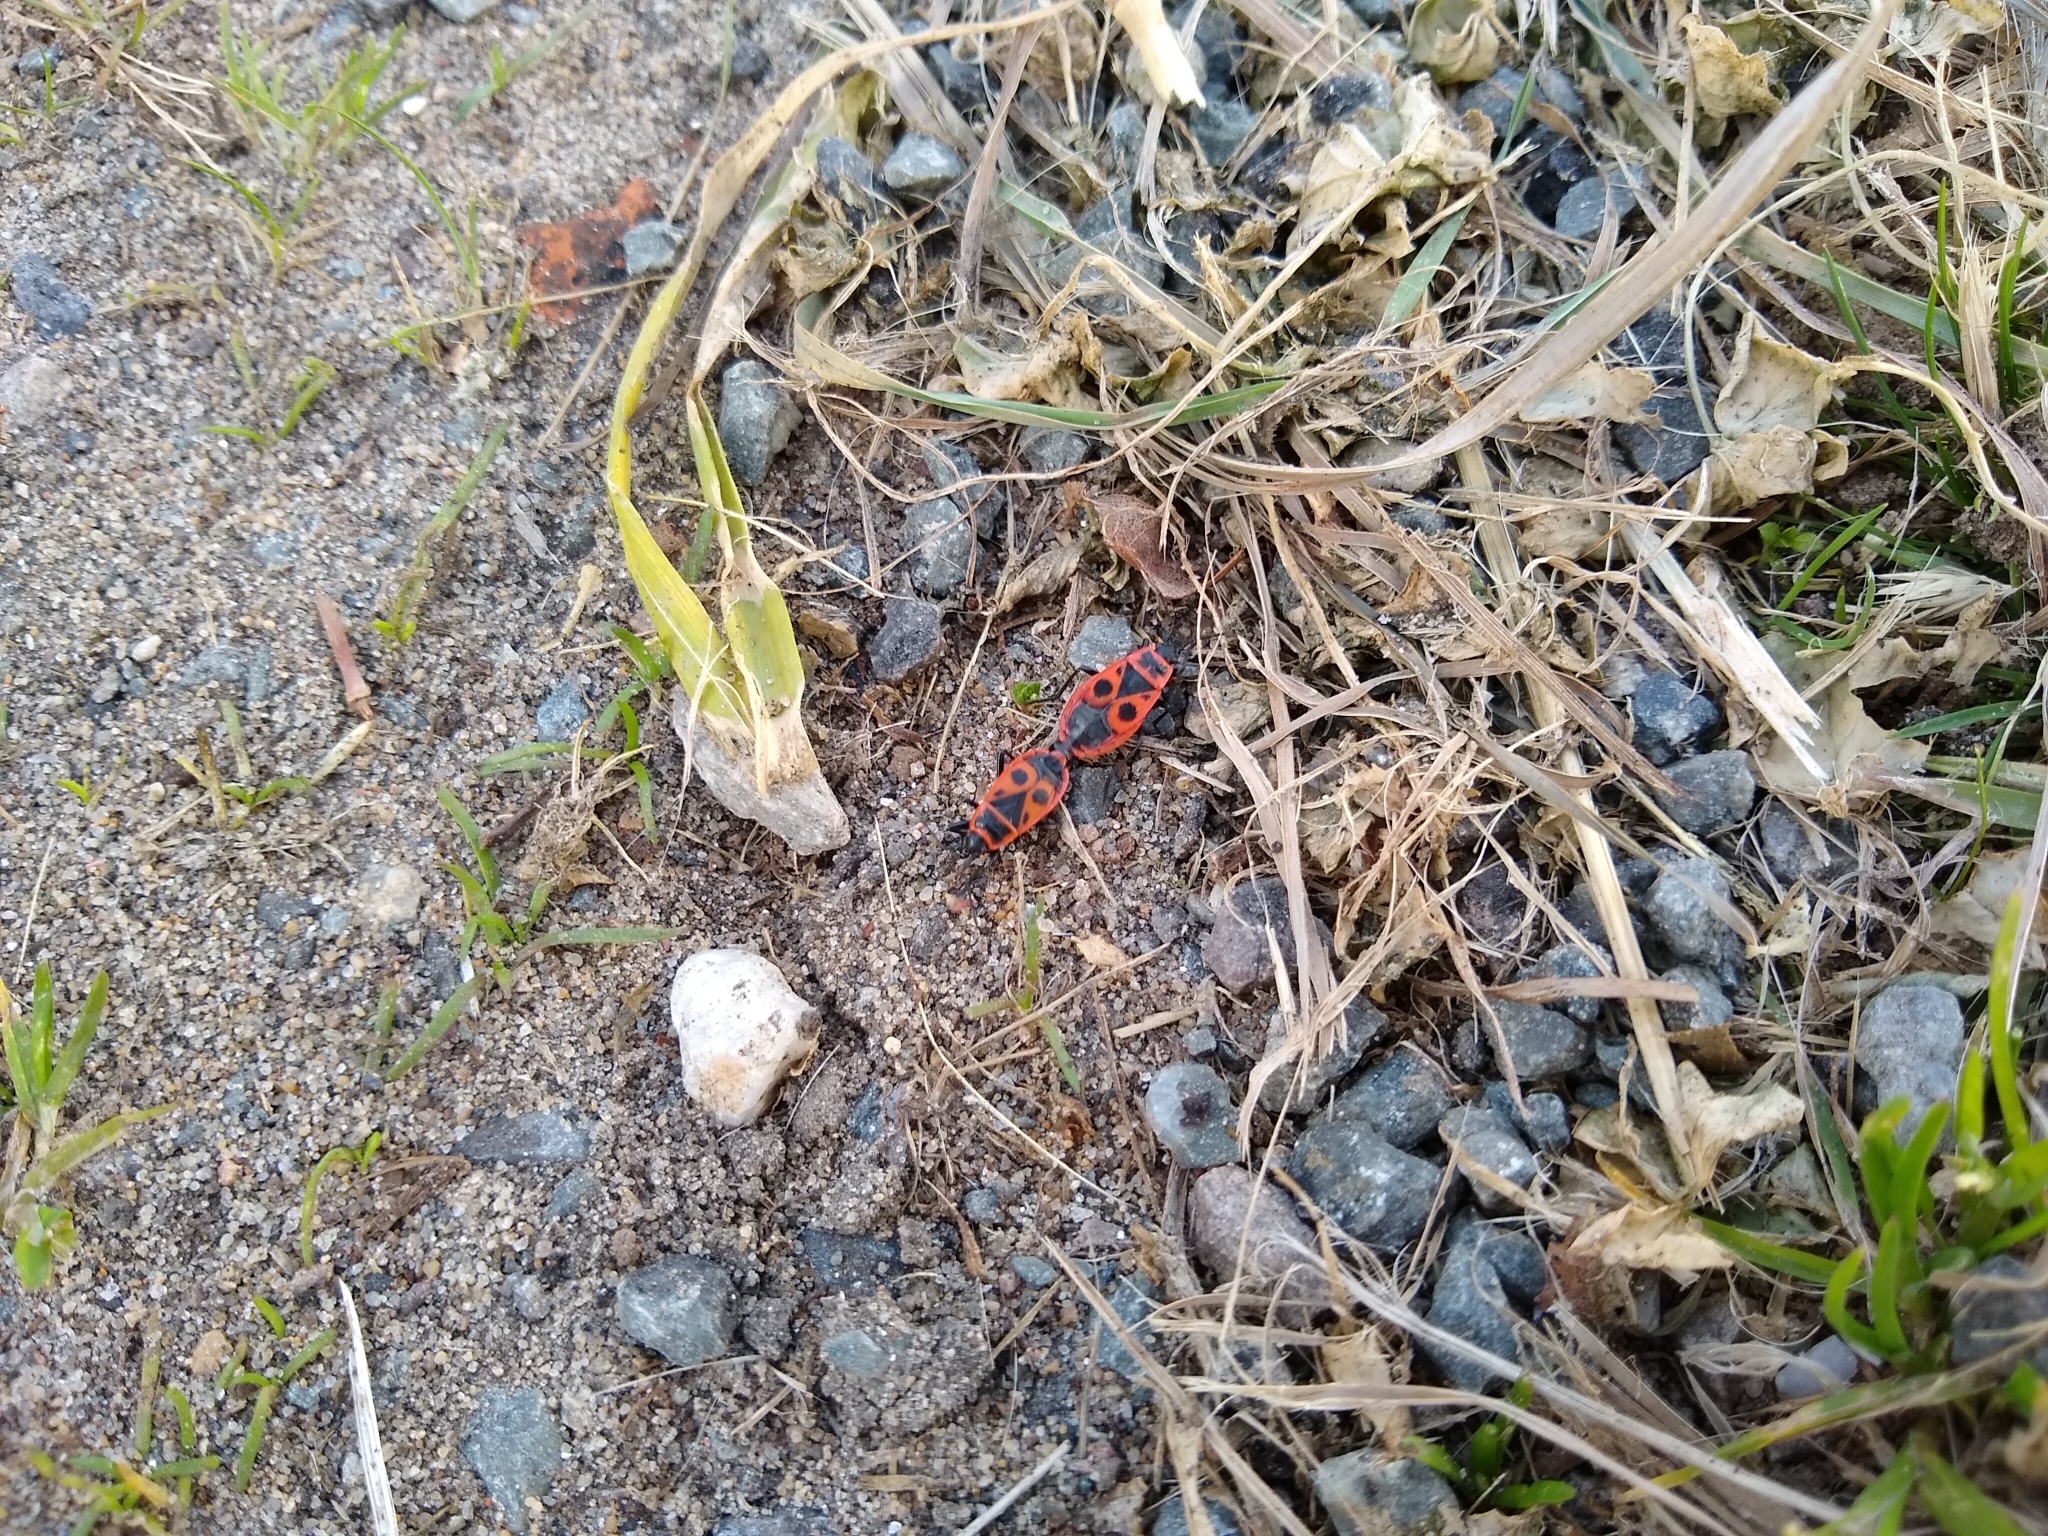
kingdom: Animalia
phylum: Arthropoda
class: Insecta
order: Hemiptera
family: Pyrrhocoridae
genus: Pyrrhocoris
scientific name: Pyrrhocoris apterus
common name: Firebug
